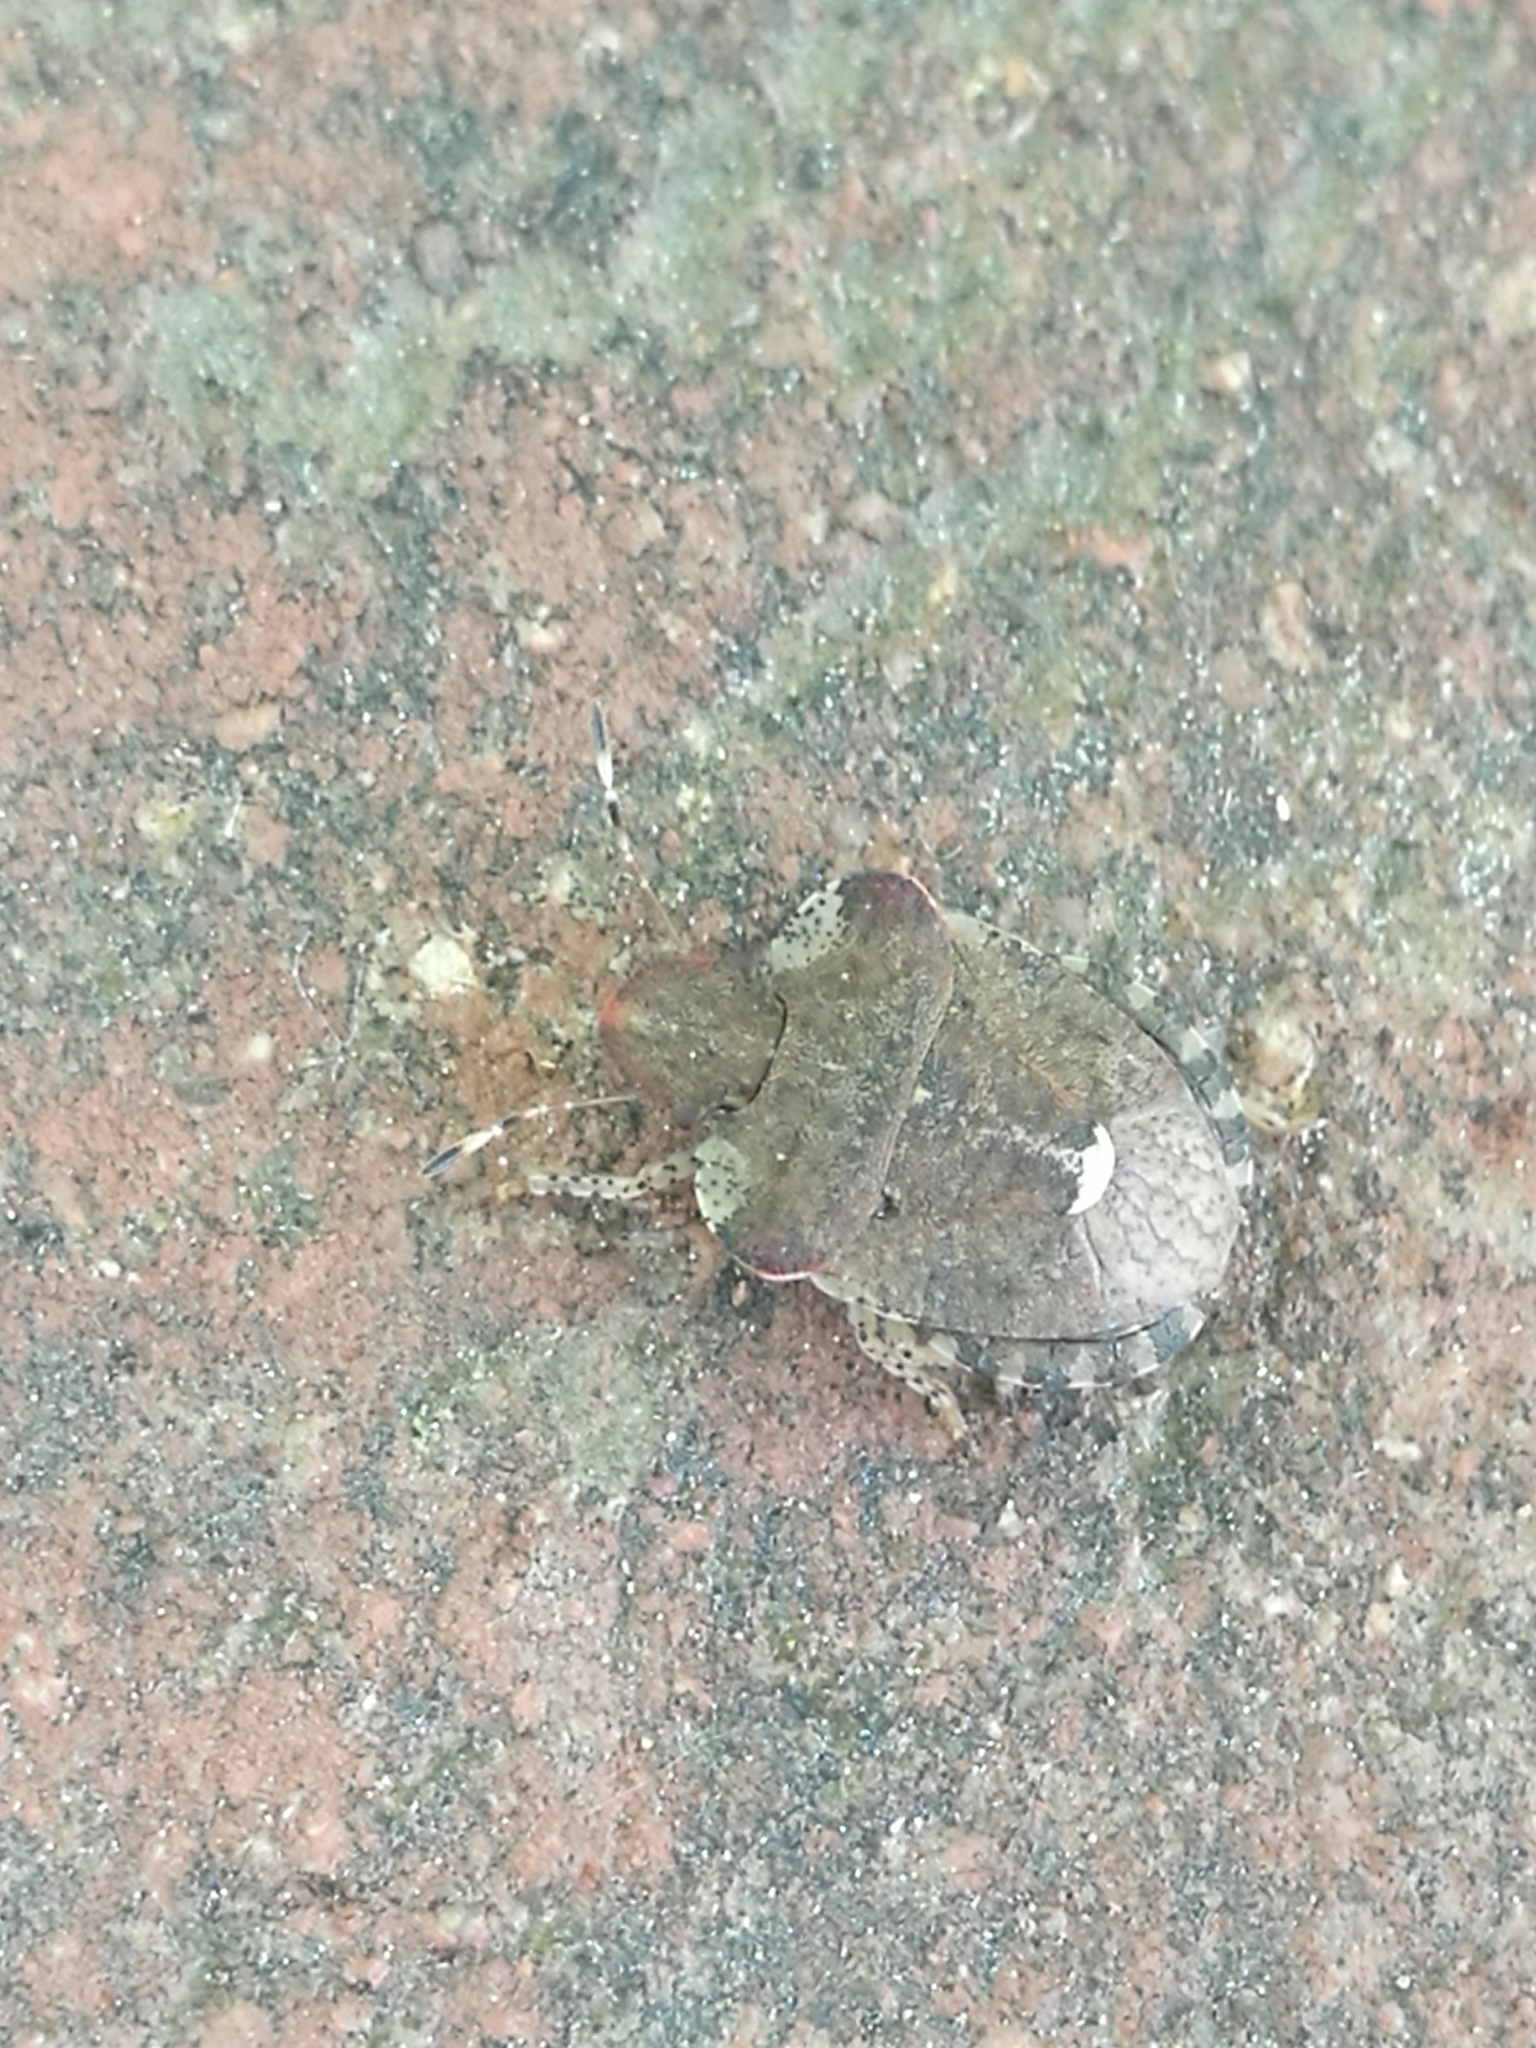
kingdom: Animalia
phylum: Arthropoda
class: Insecta
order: Hemiptera
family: Pentatomidae
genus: Dyroderes
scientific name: Dyroderes umbraculatus
